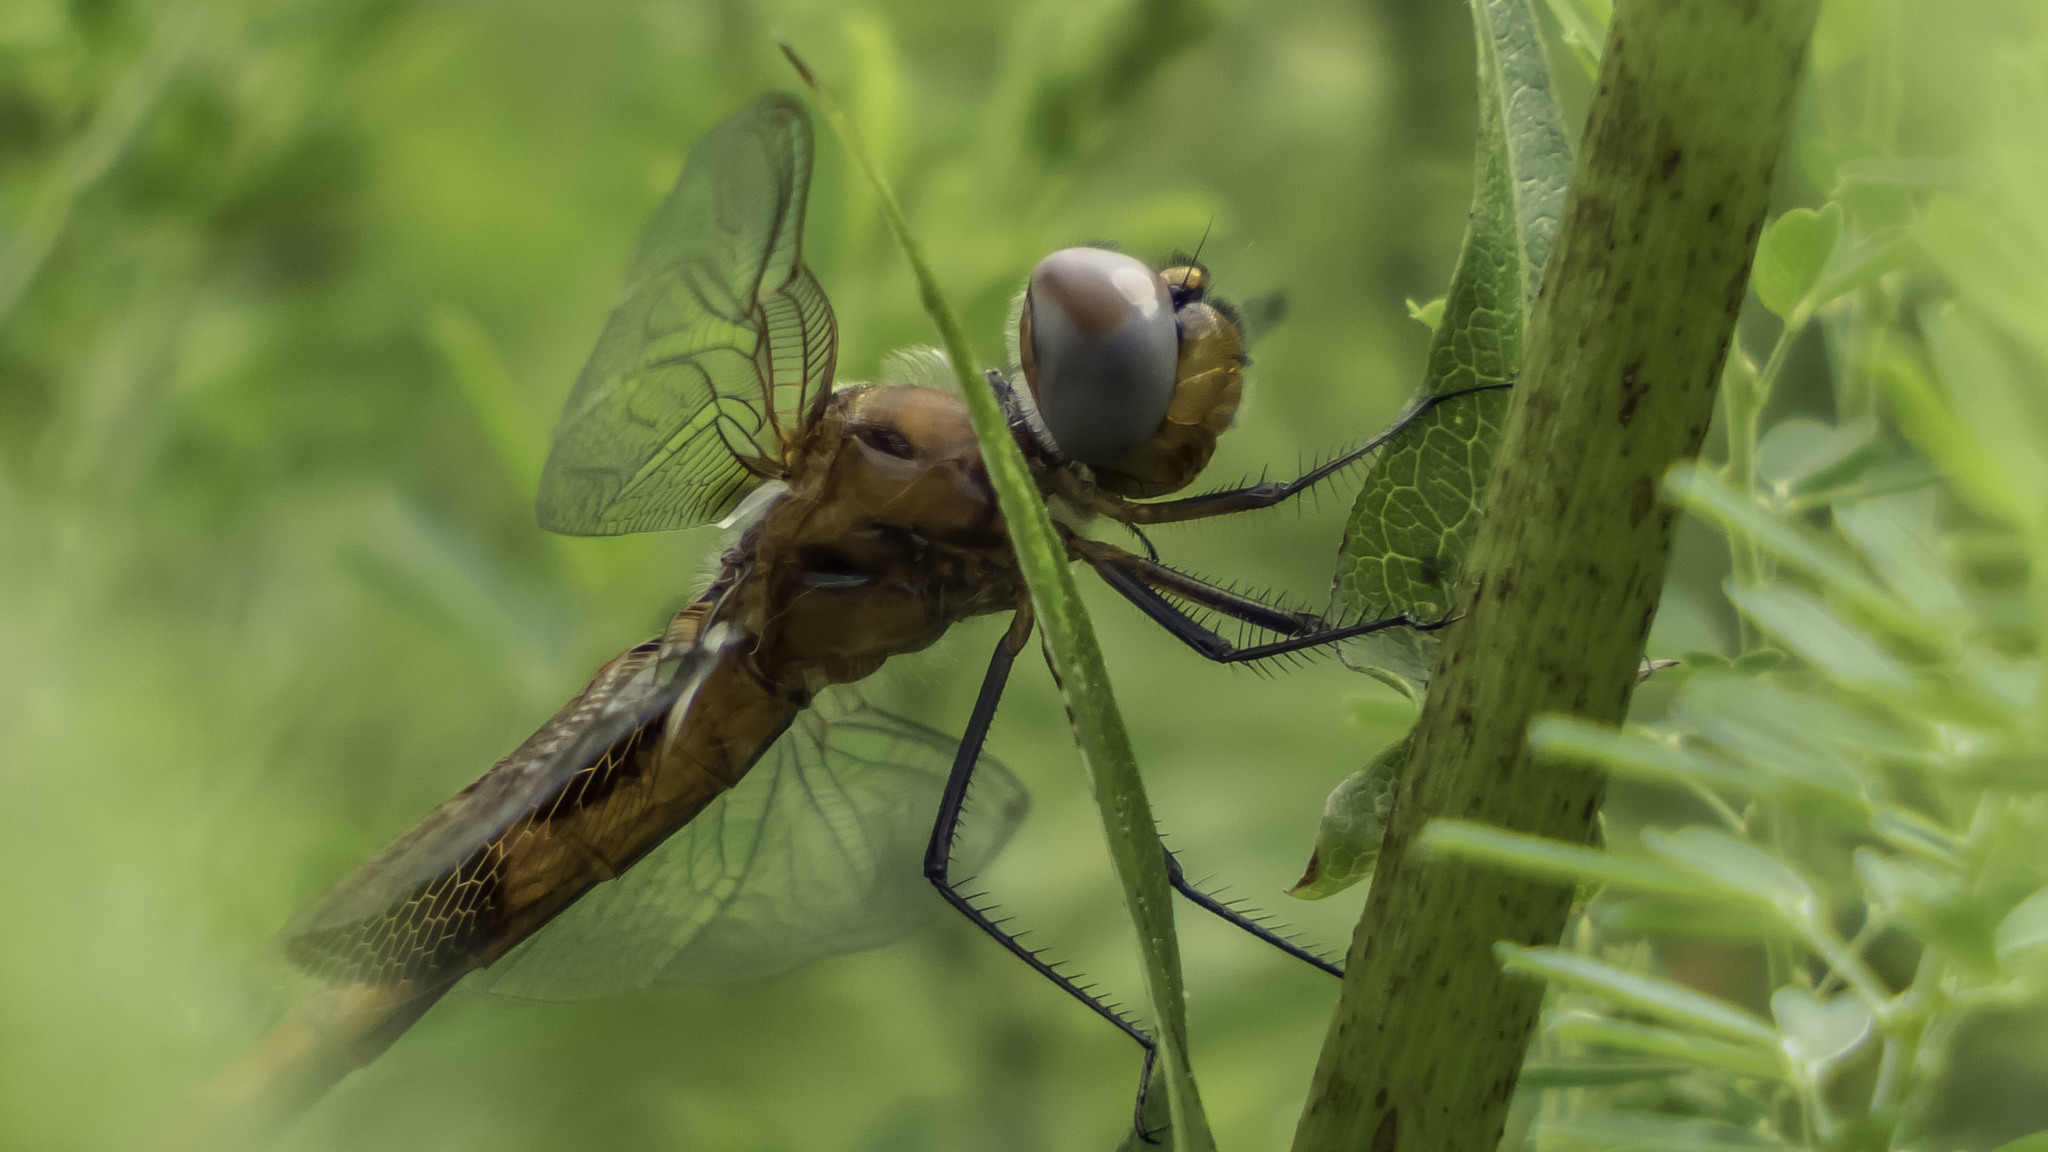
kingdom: Animalia
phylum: Arthropoda
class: Insecta
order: Odonata
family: Libellulidae
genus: Tramea
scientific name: Tramea carolina
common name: Carolina saddlebags
